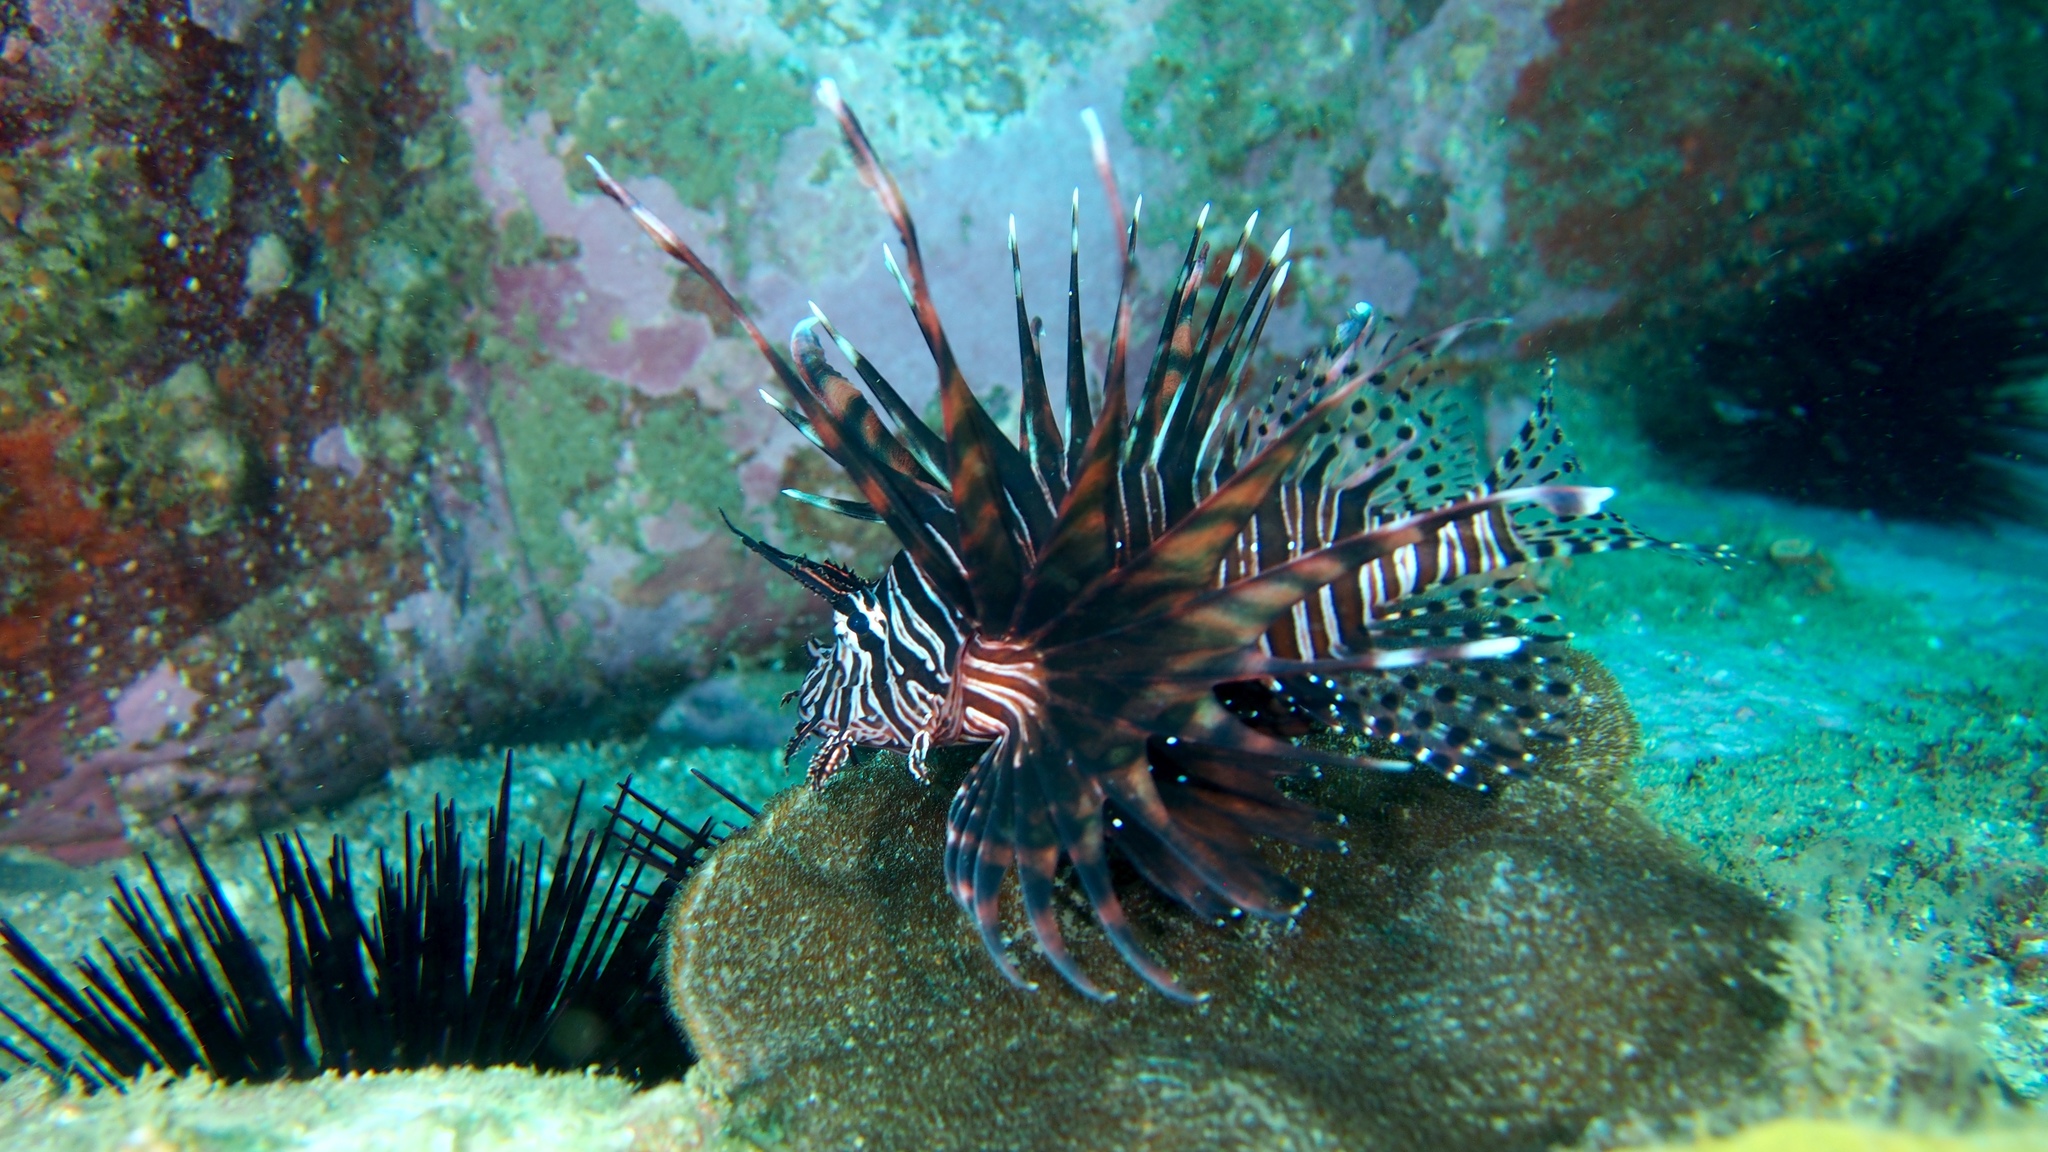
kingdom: Animalia
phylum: Chordata
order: Scorpaeniformes
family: Scorpaenidae
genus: Pterois
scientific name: Pterois volitans
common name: Lionfish
